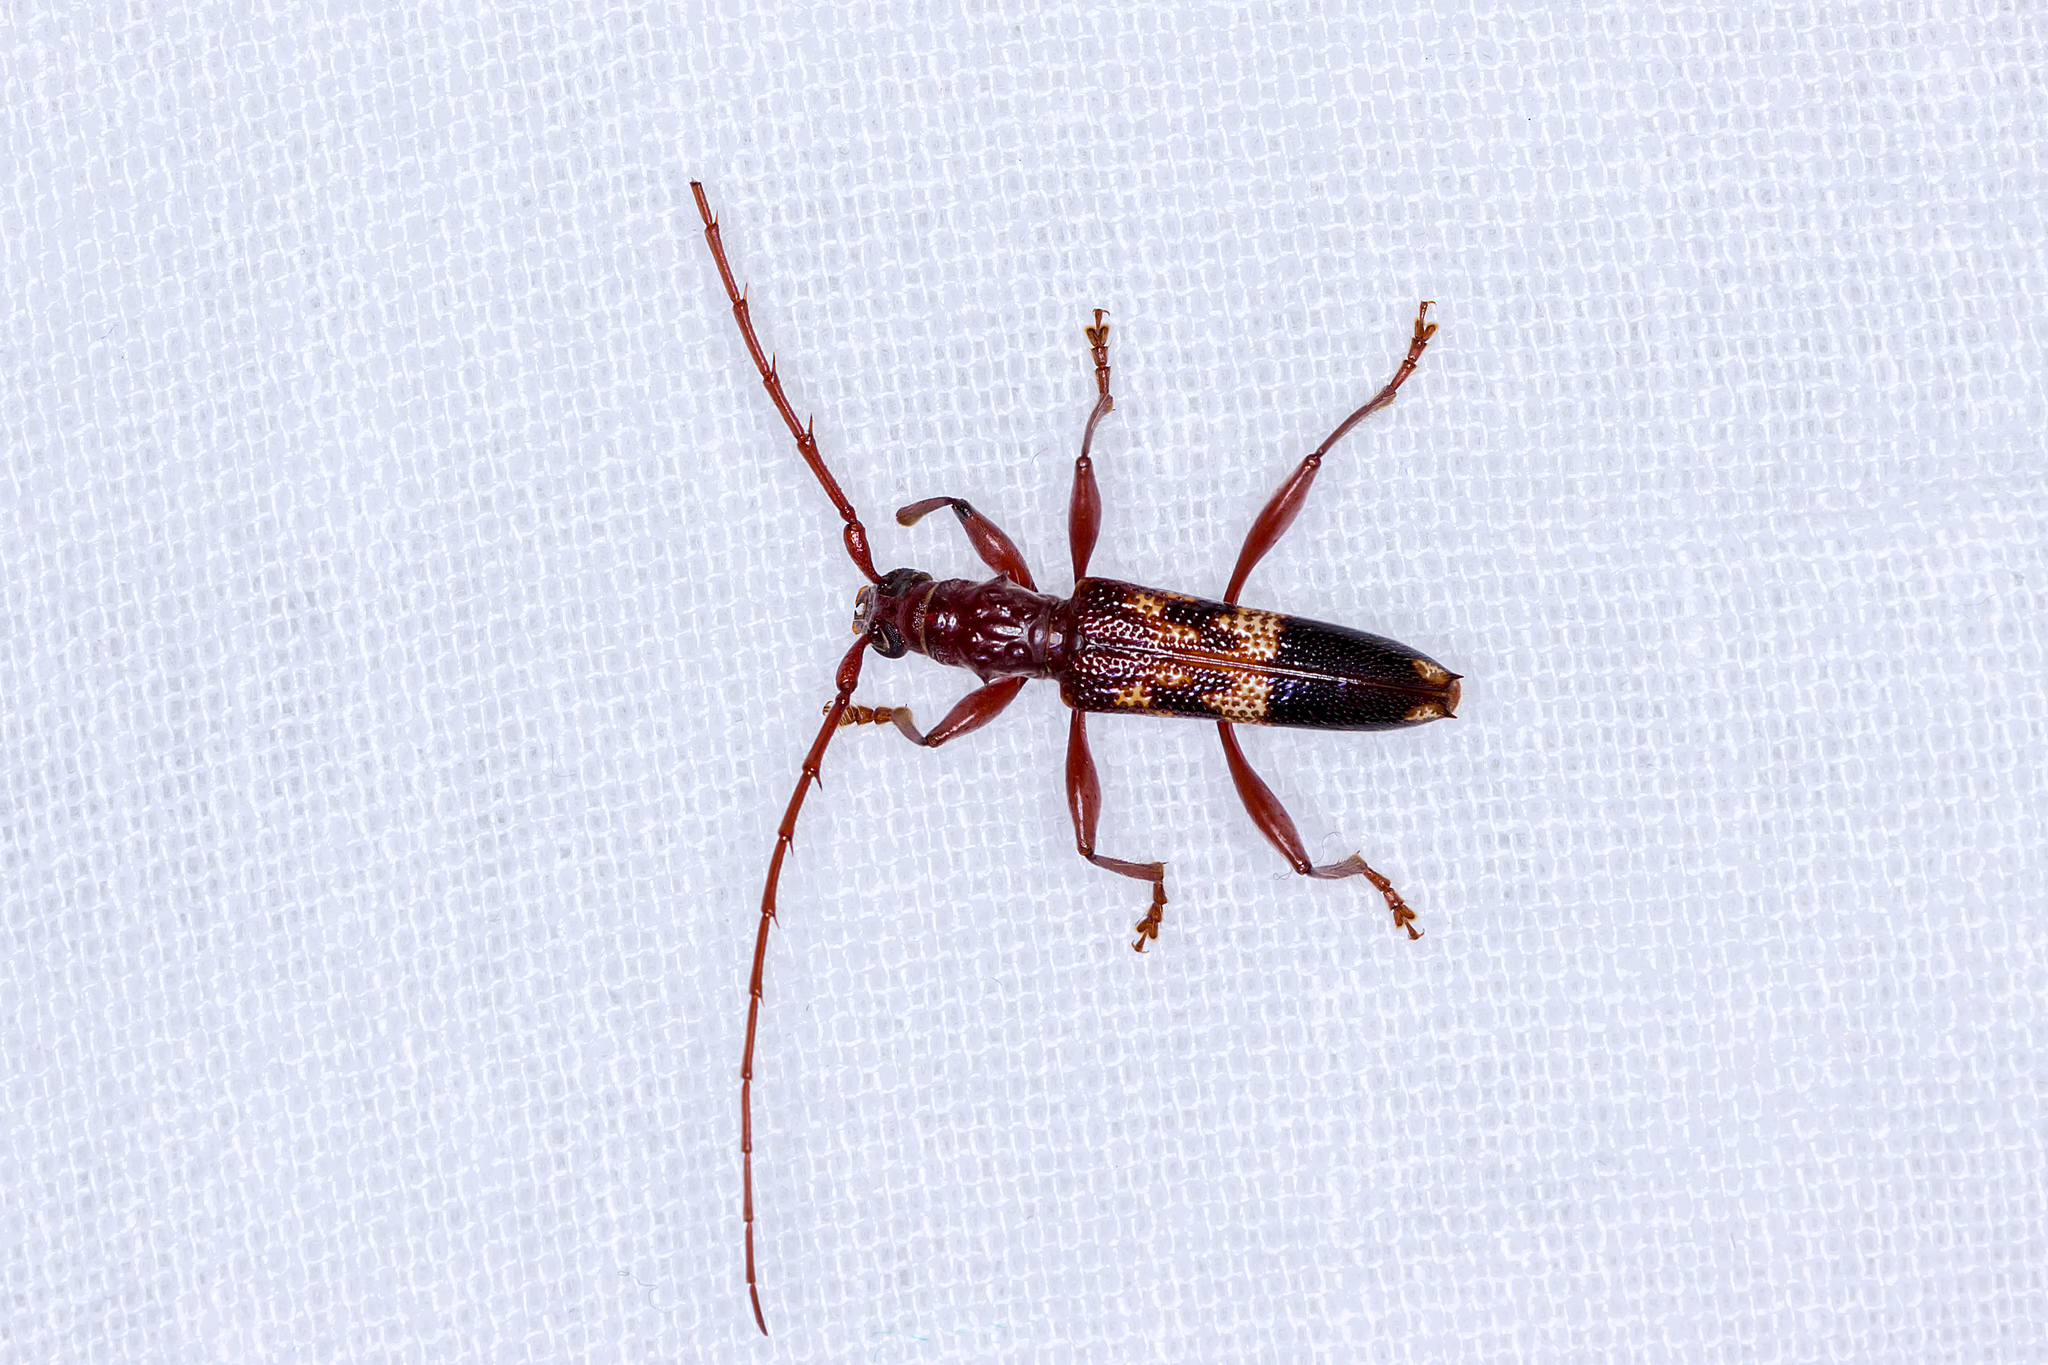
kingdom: Animalia
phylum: Arthropoda
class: Insecta
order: Coleoptera
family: Cerambycidae
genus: Coptocercus
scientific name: Coptocercus abberrans
